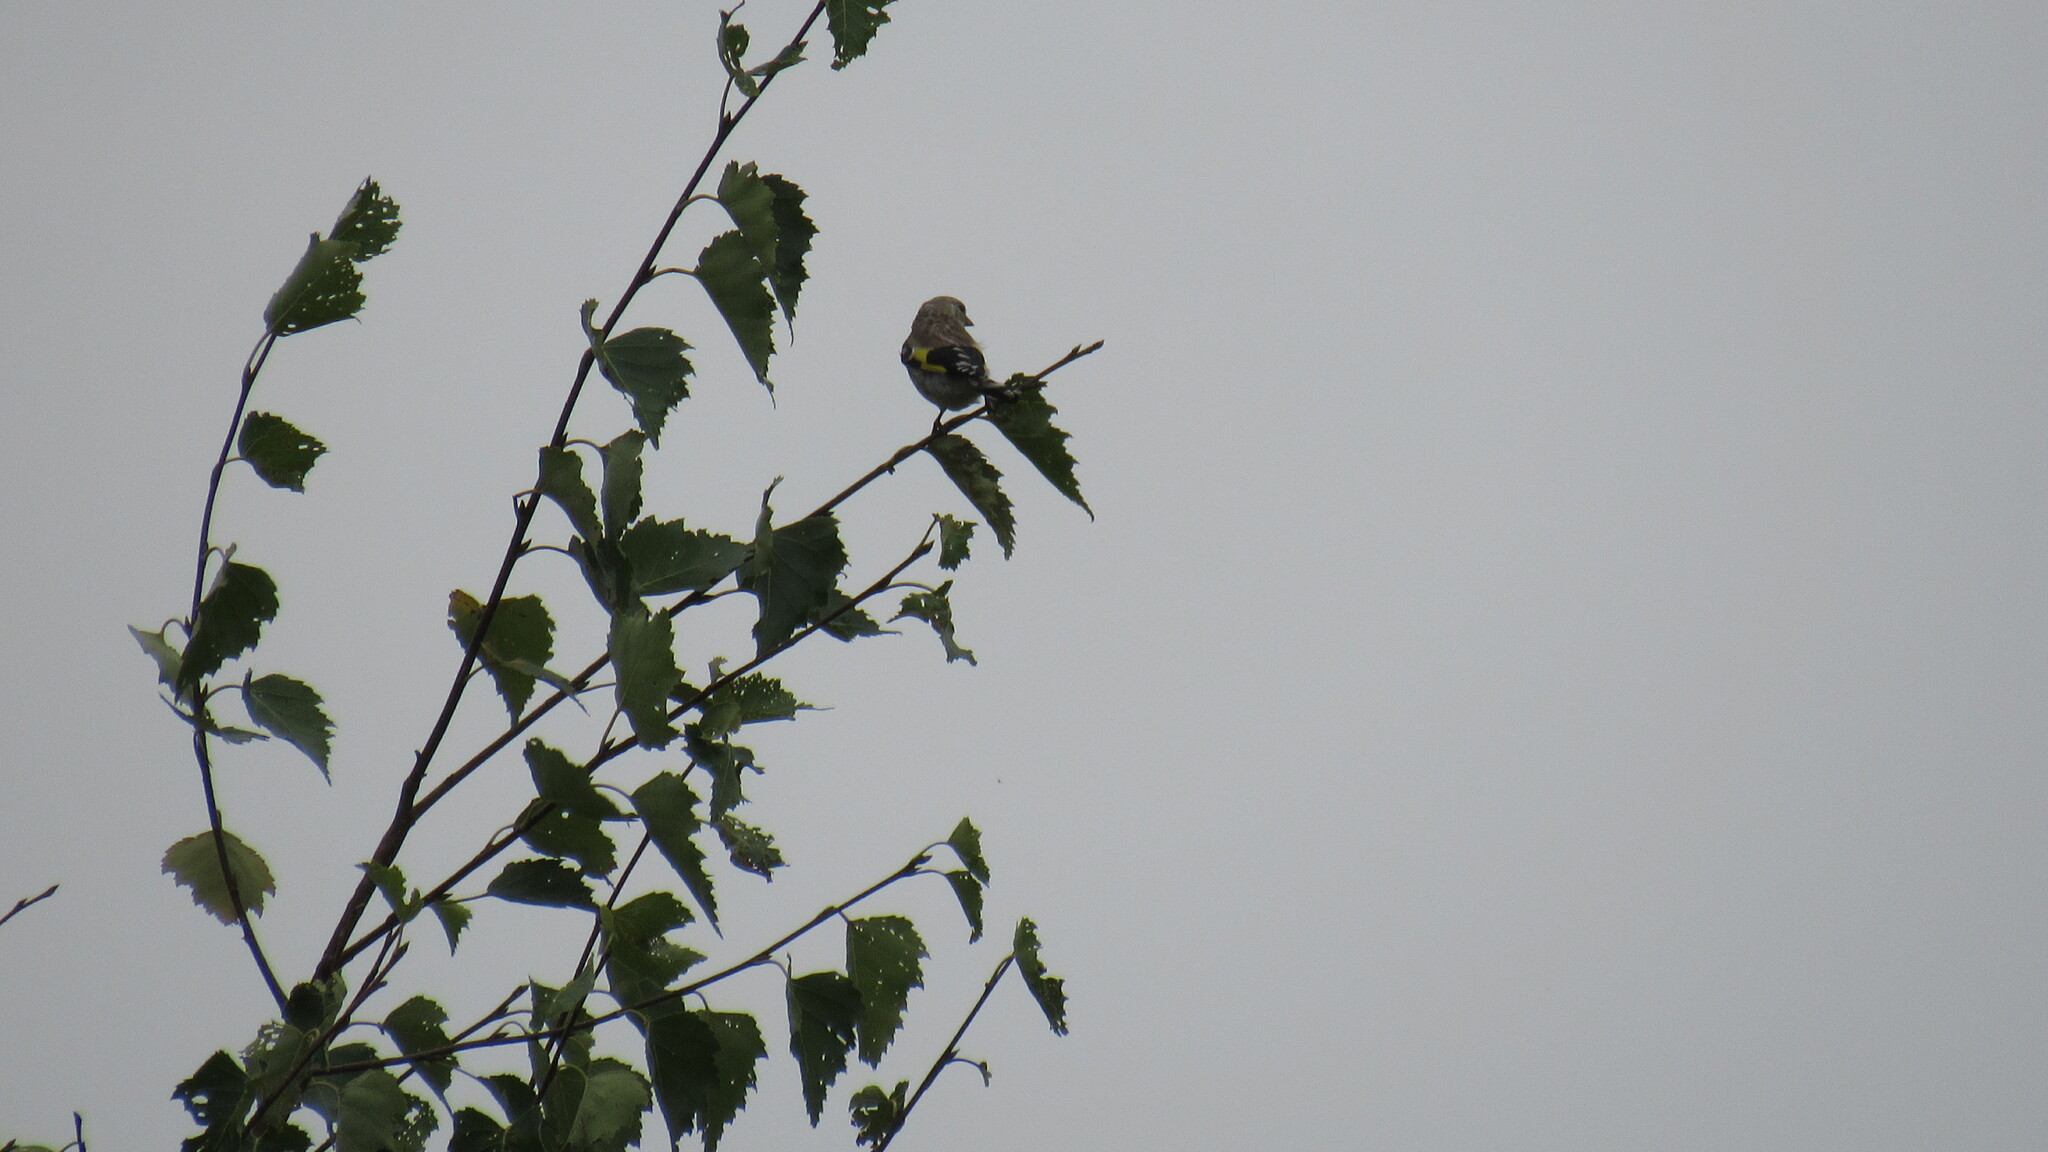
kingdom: Animalia
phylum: Chordata
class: Aves
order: Passeriformes
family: Fringillidae
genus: Carduelis
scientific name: Carduelis carduelis
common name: European goldfinch
